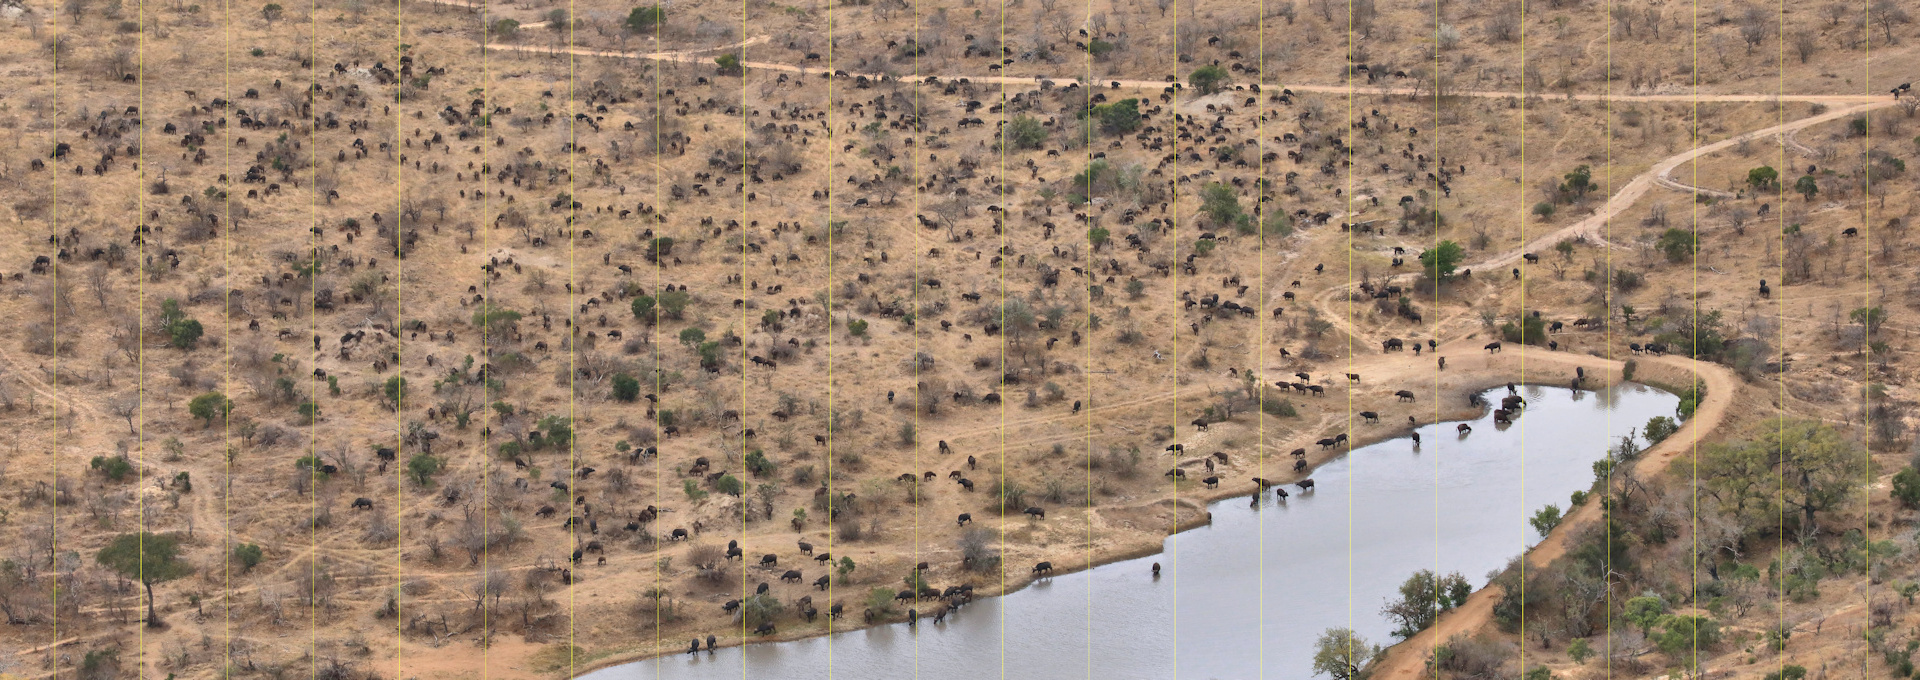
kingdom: Animalia
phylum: Chordata
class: Mammalia
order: Artiodactyla
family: Bovidae
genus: Syncerus
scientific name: Syncerus caffer
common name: African buffalo
